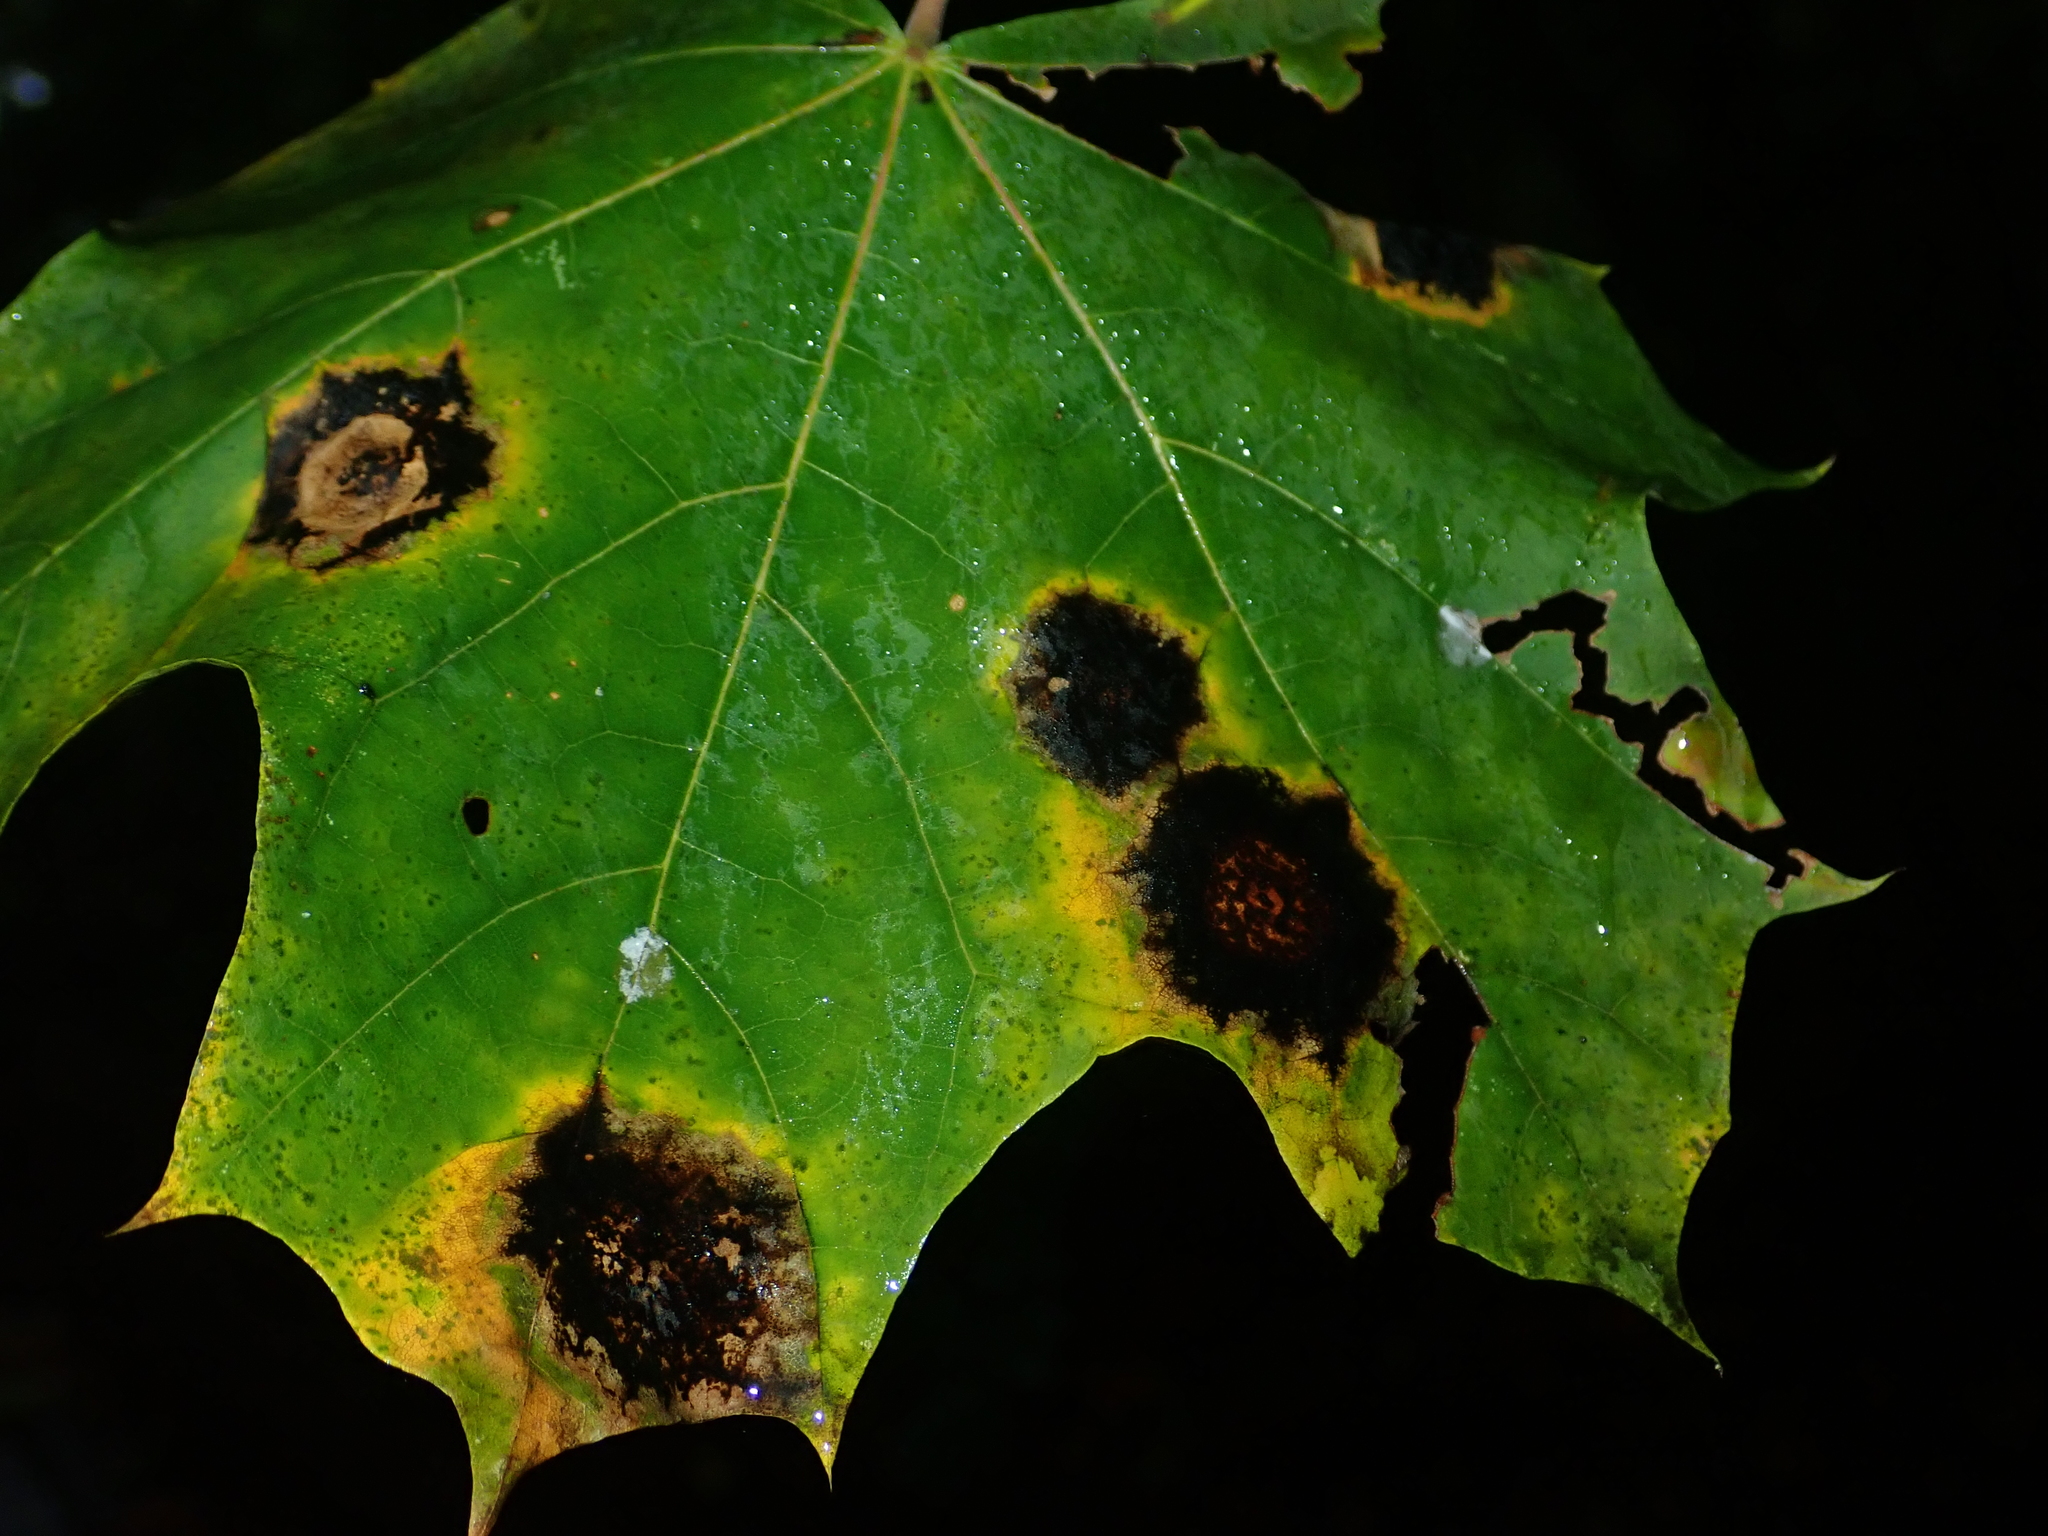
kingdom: Fungi
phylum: Ascomycota
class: Leotiomycetes
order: Rhytismatales
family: Rhytismataceae
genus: Rhytisma
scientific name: Rhytisma acerinum
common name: European tar spot
